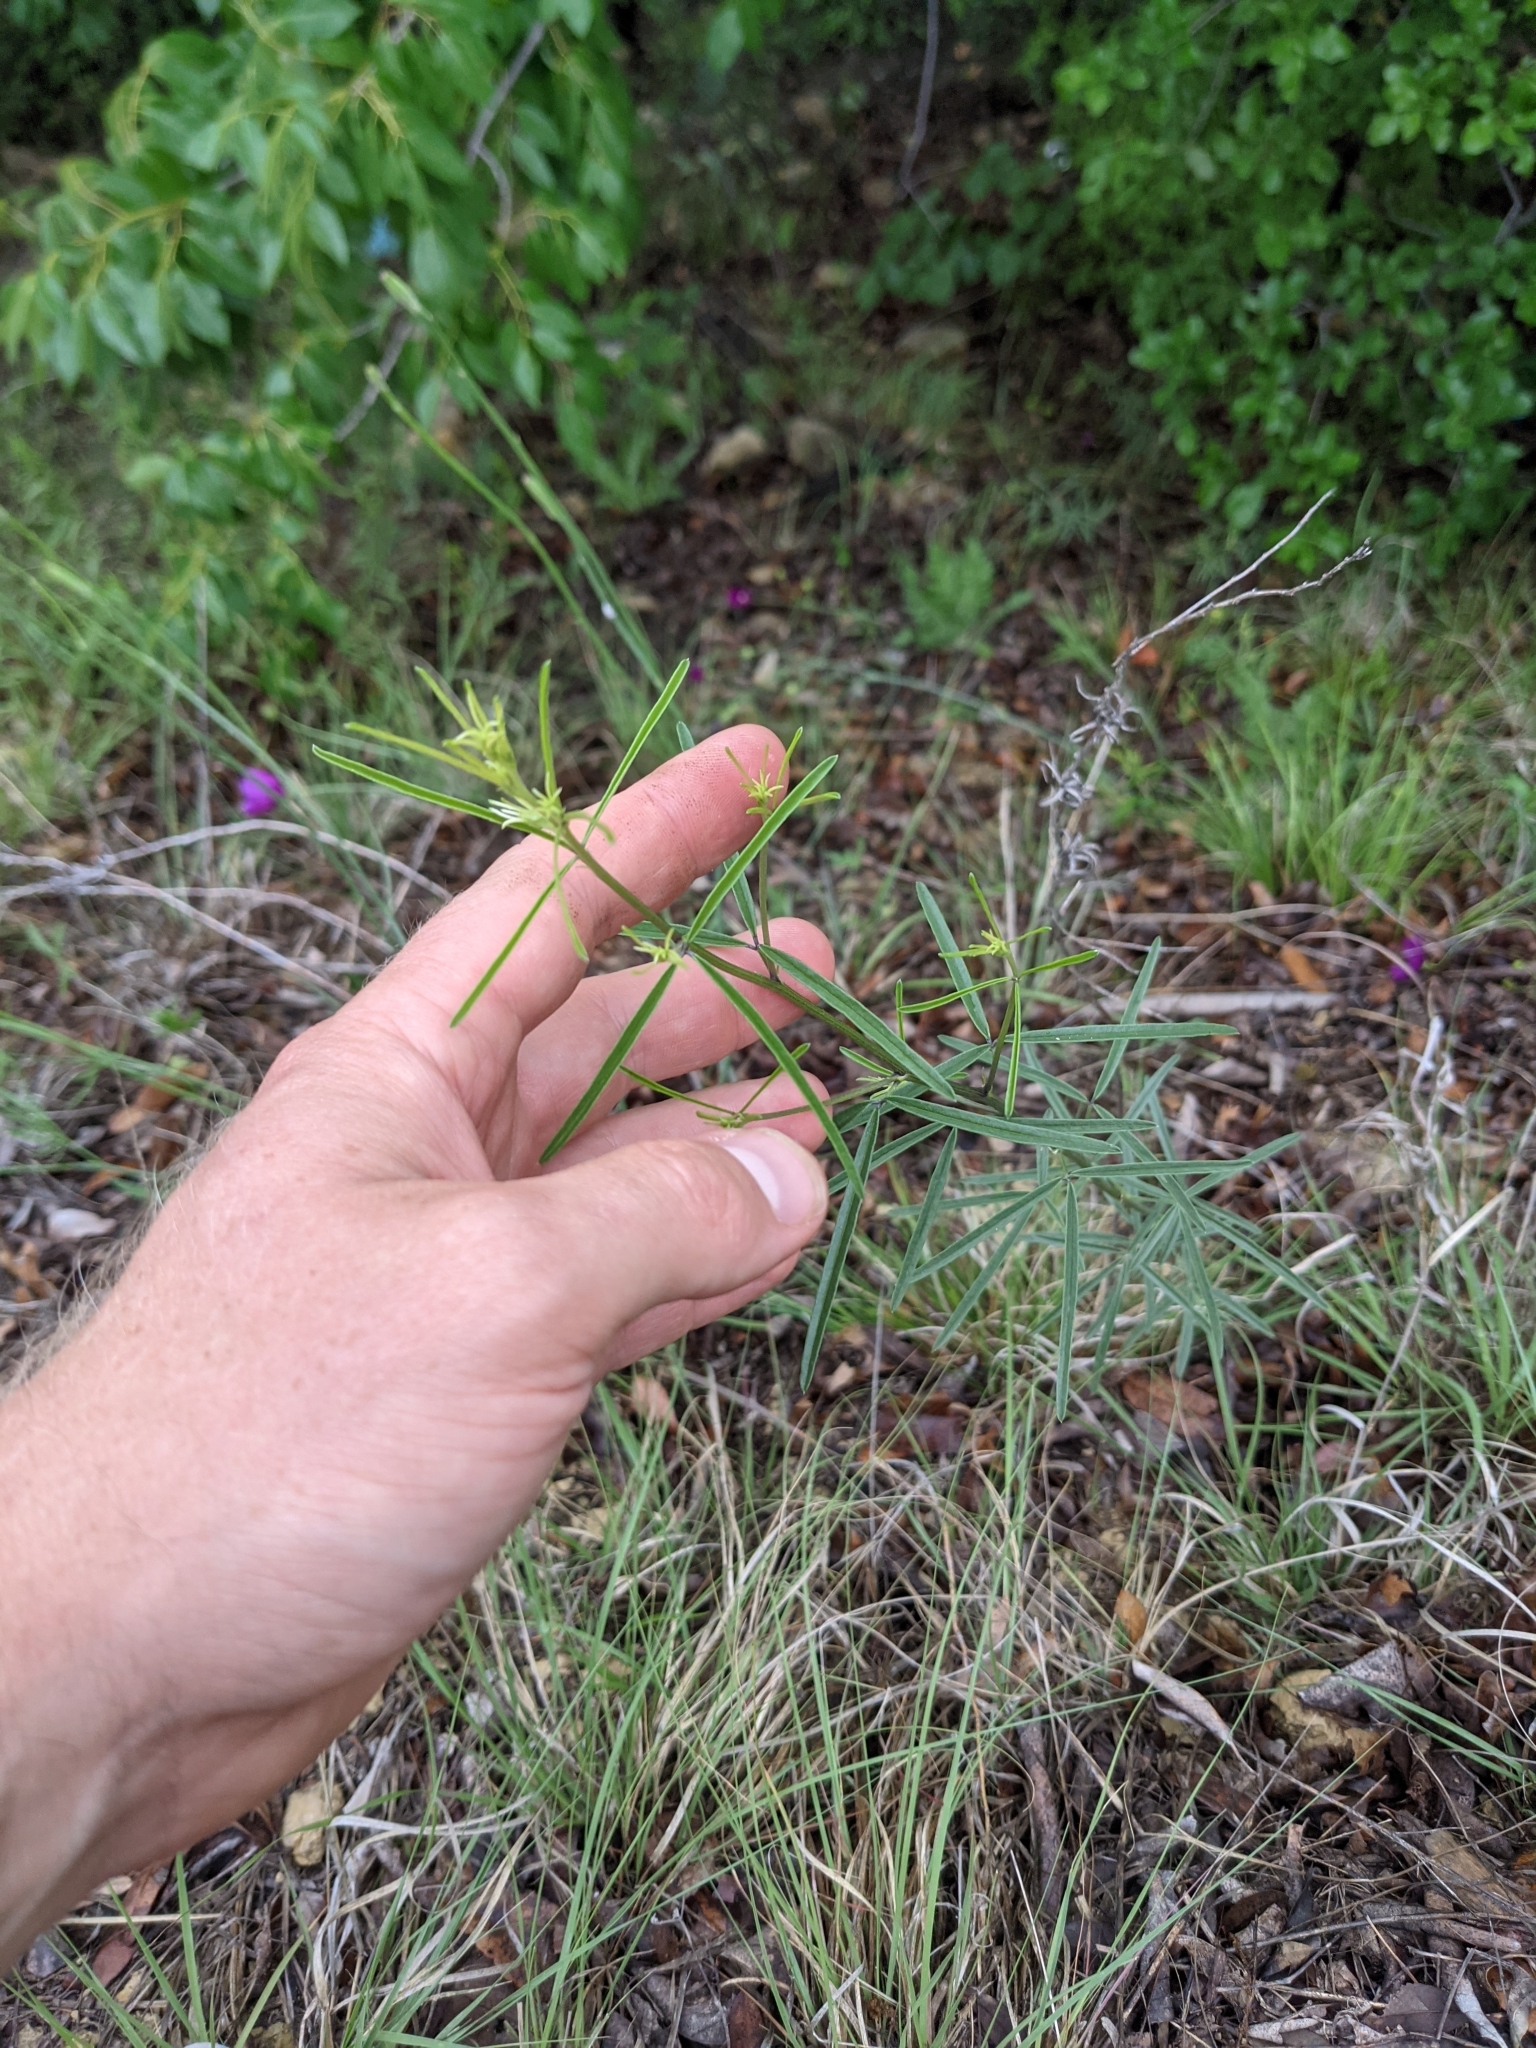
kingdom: Plantae
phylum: Tracheophyta
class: Magnoliopsida
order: Fabales
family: Fabaceae
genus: Pediomelum
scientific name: Pediomelum linearifolium
